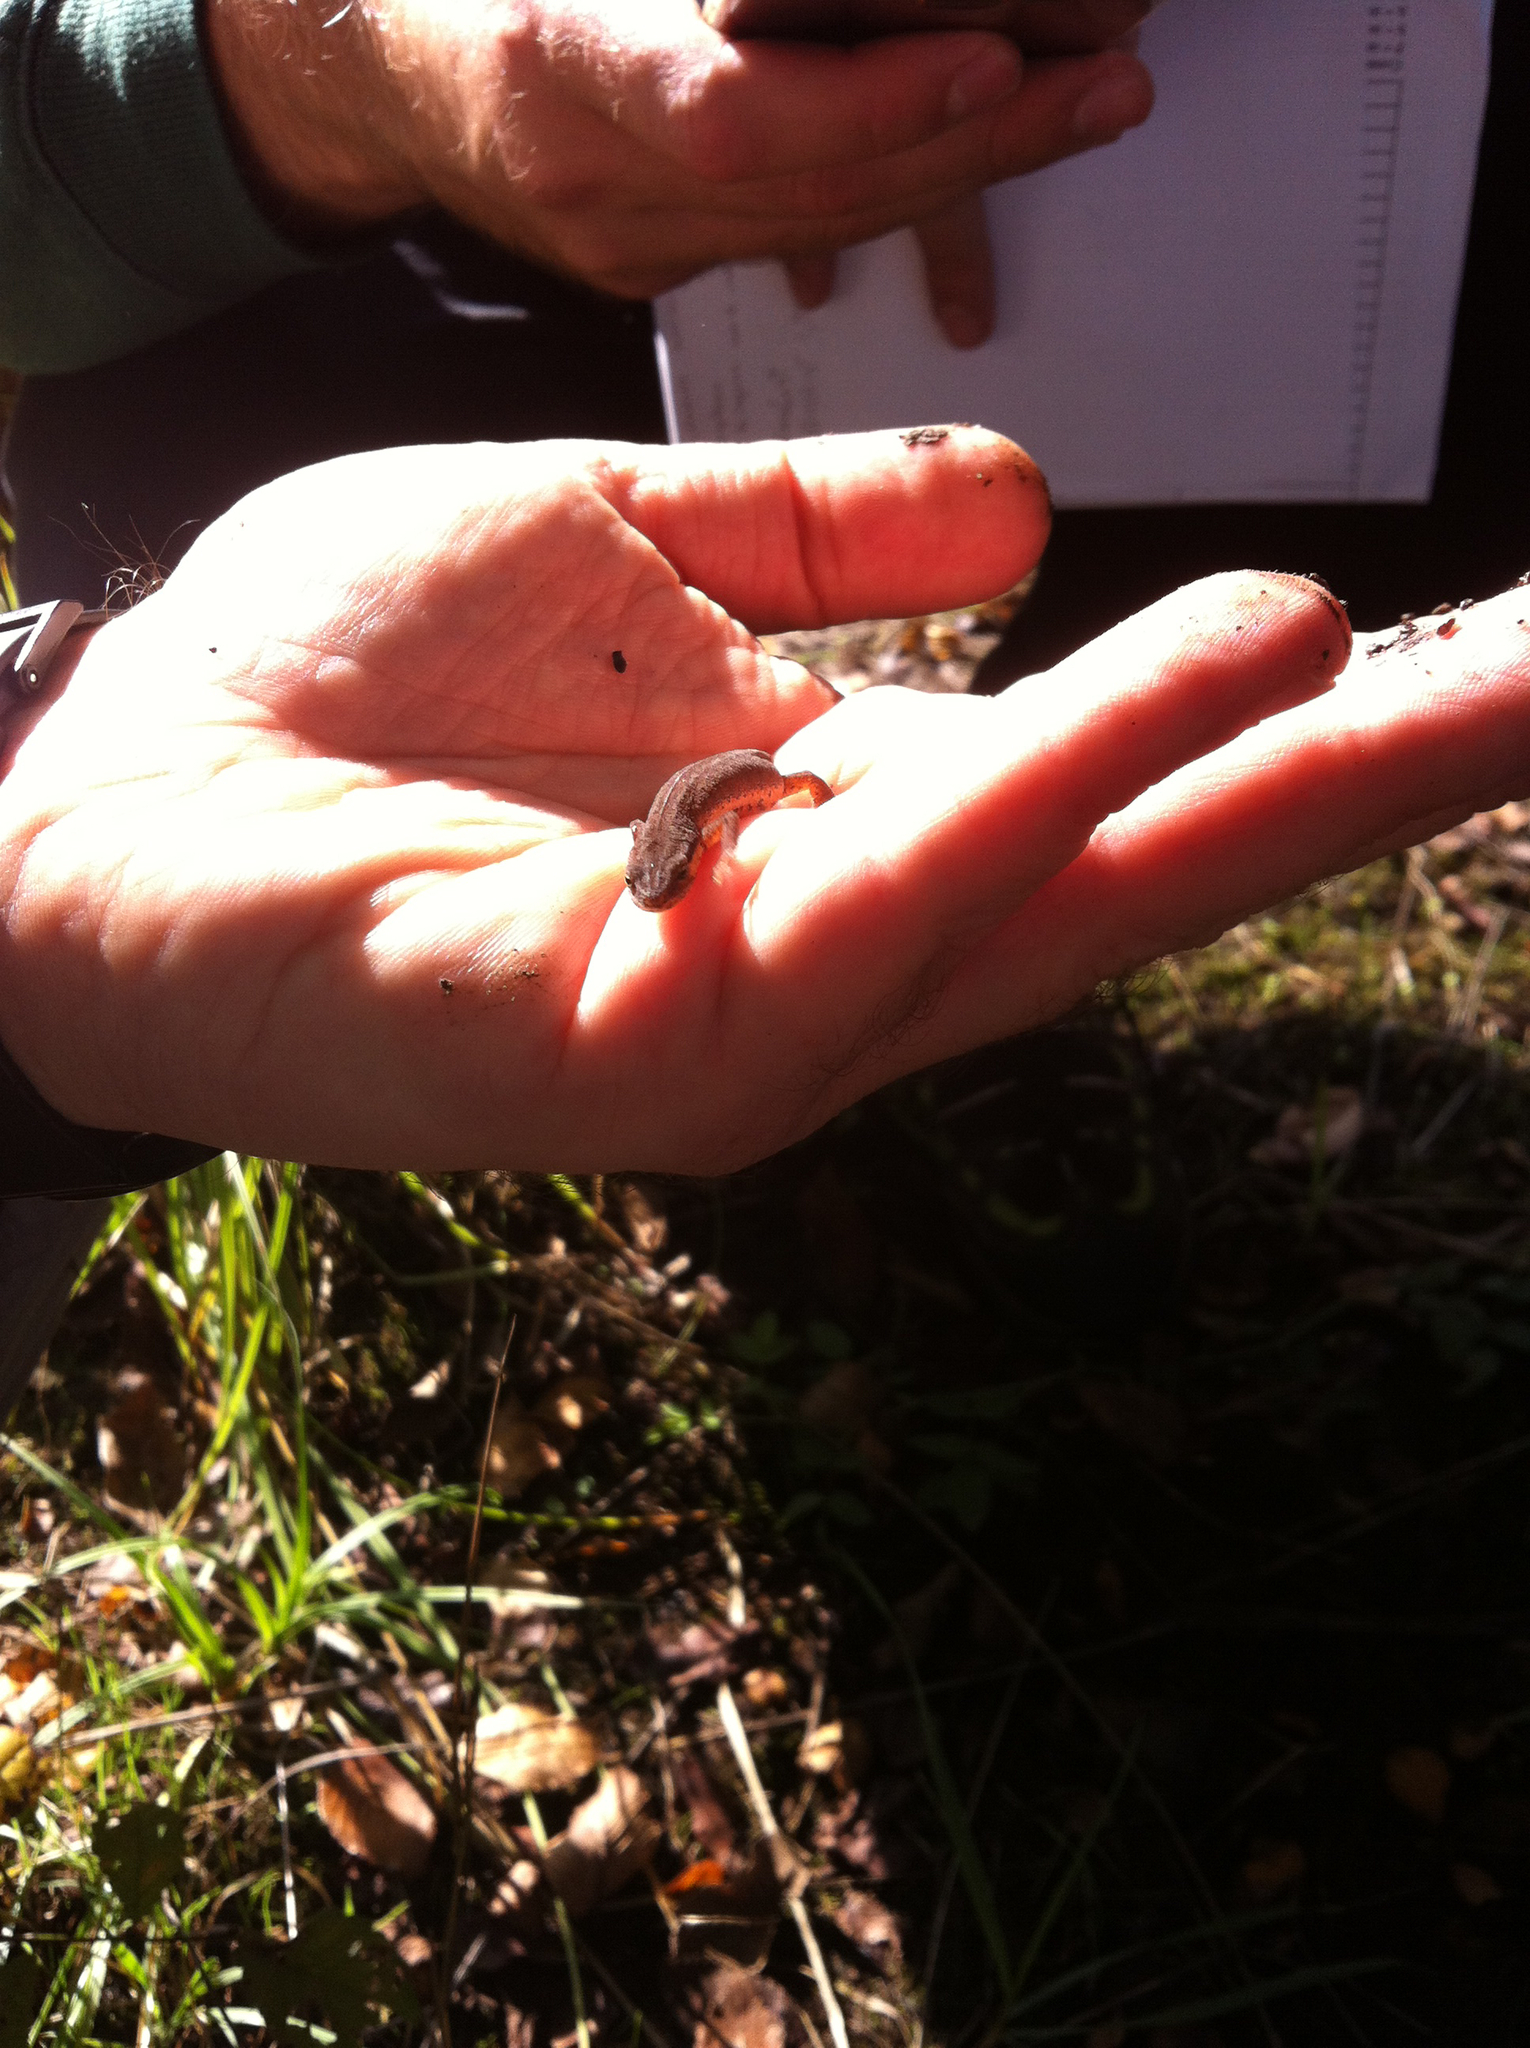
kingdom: Animalia
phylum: Chordata
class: Amphibia
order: Caudata
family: Salamandridae
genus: Lissotriton
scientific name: Lissotriton vulgaris
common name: Smooth newt
